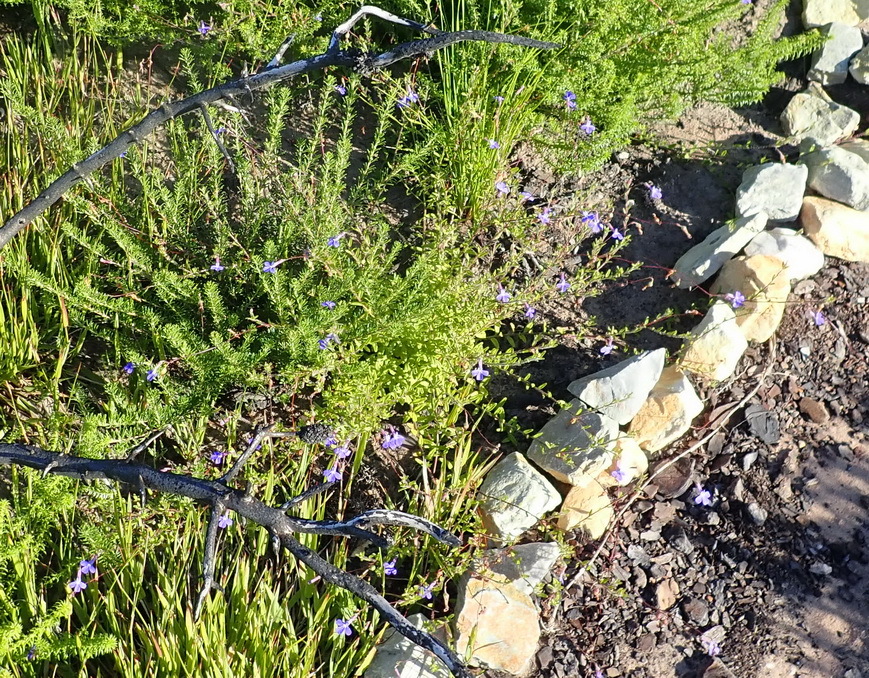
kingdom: Plantae
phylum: Tracheophyta
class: Magnoliopsida
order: Asterales
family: Campanulaceae
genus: Lobelia
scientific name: Lobelia neglecta
